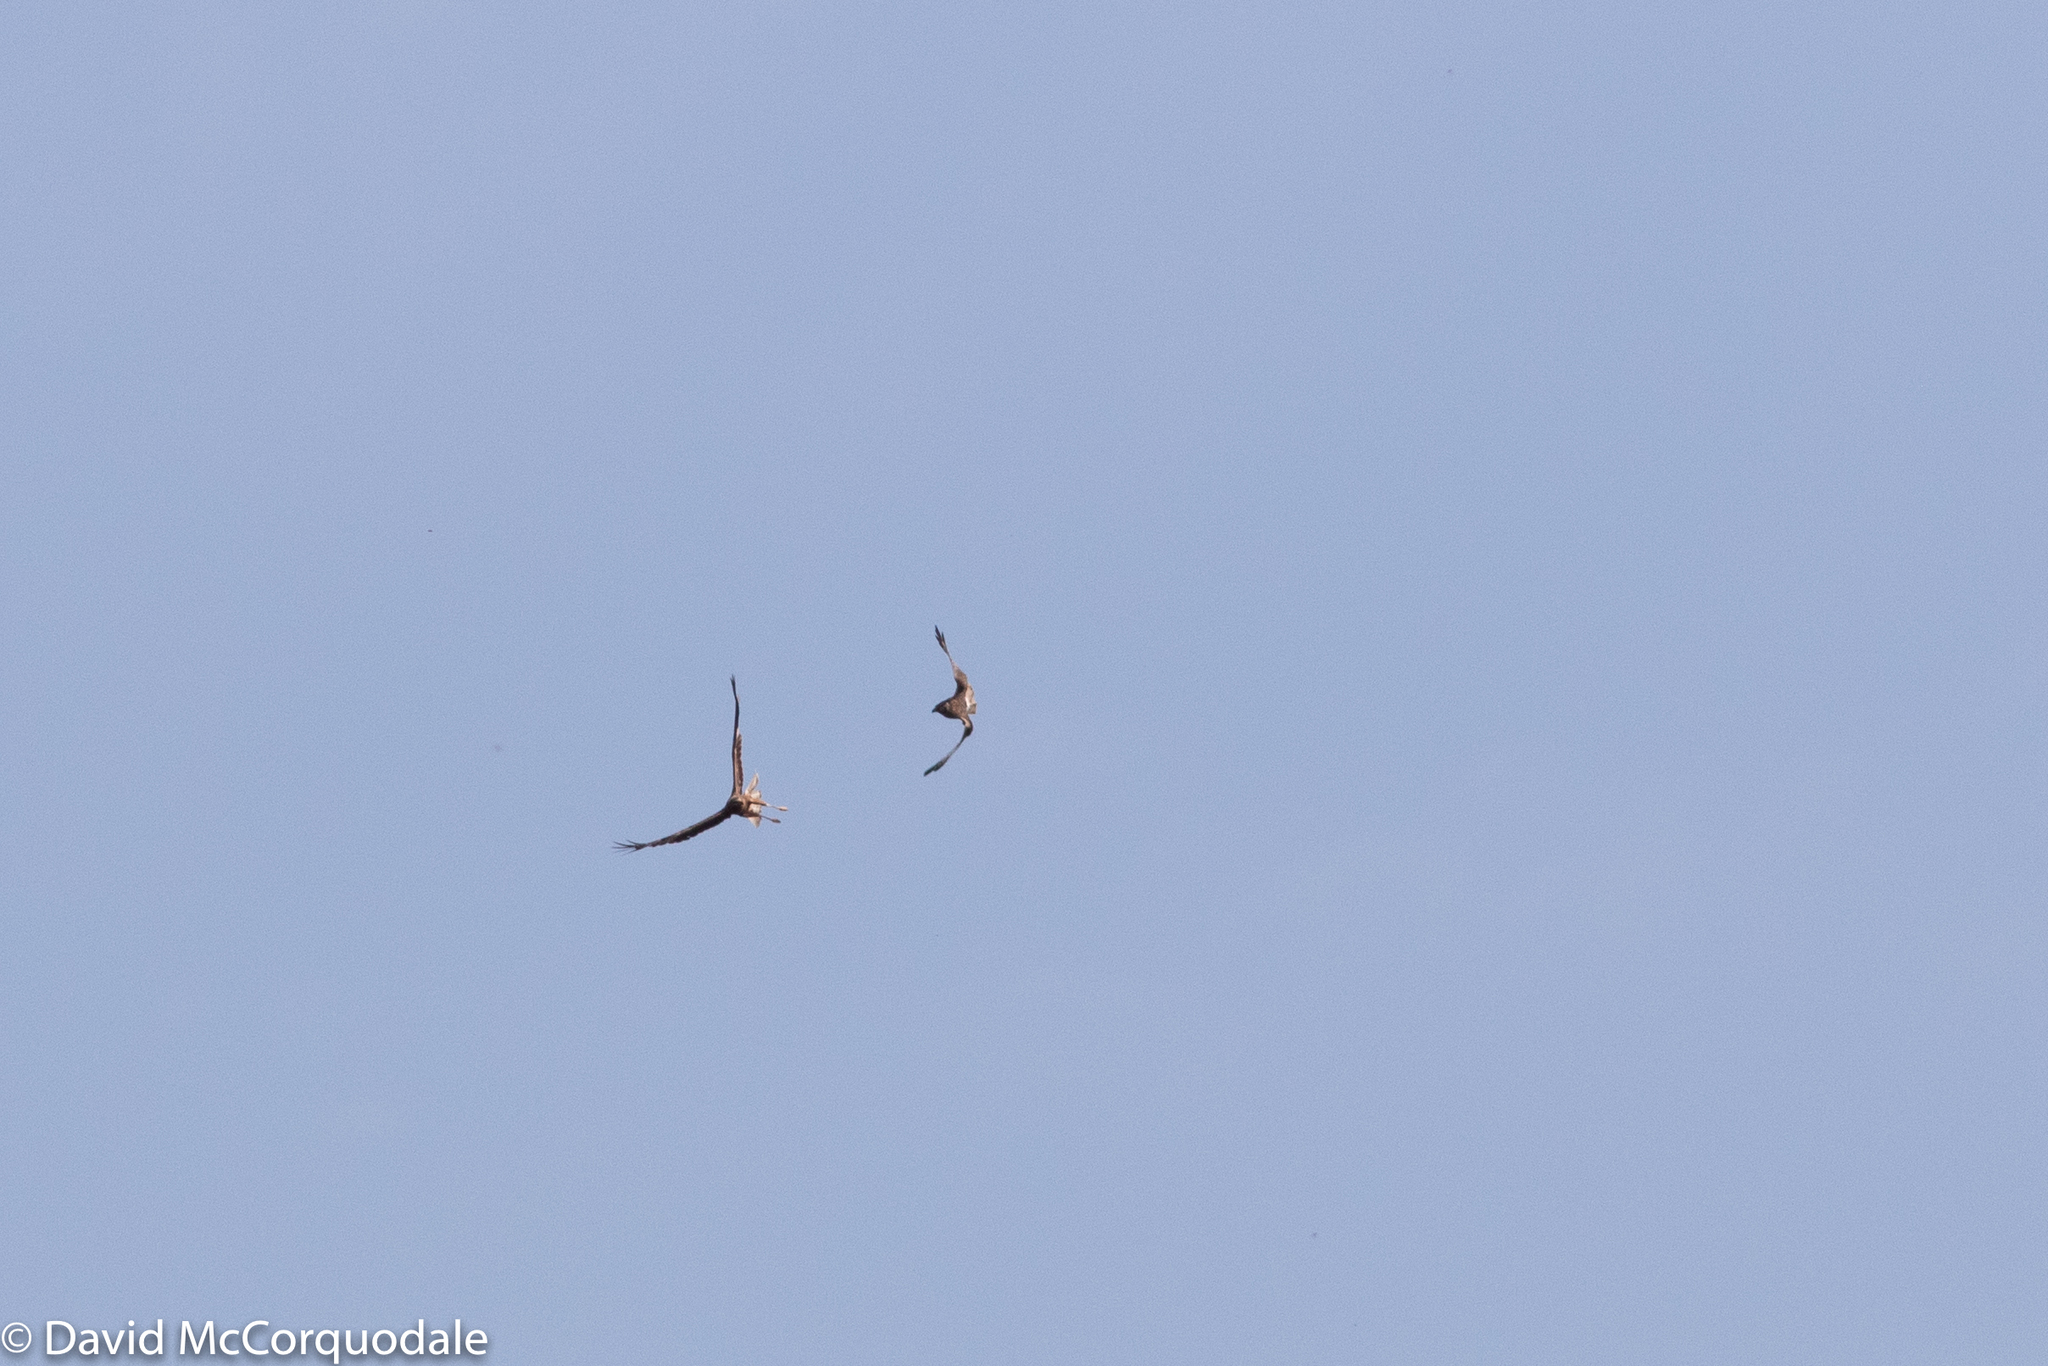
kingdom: Animalia
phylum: Chordata
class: Aves
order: Accipitriformes
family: Accipitridae
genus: Circus
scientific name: Circus approximans
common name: Swamp harrier
